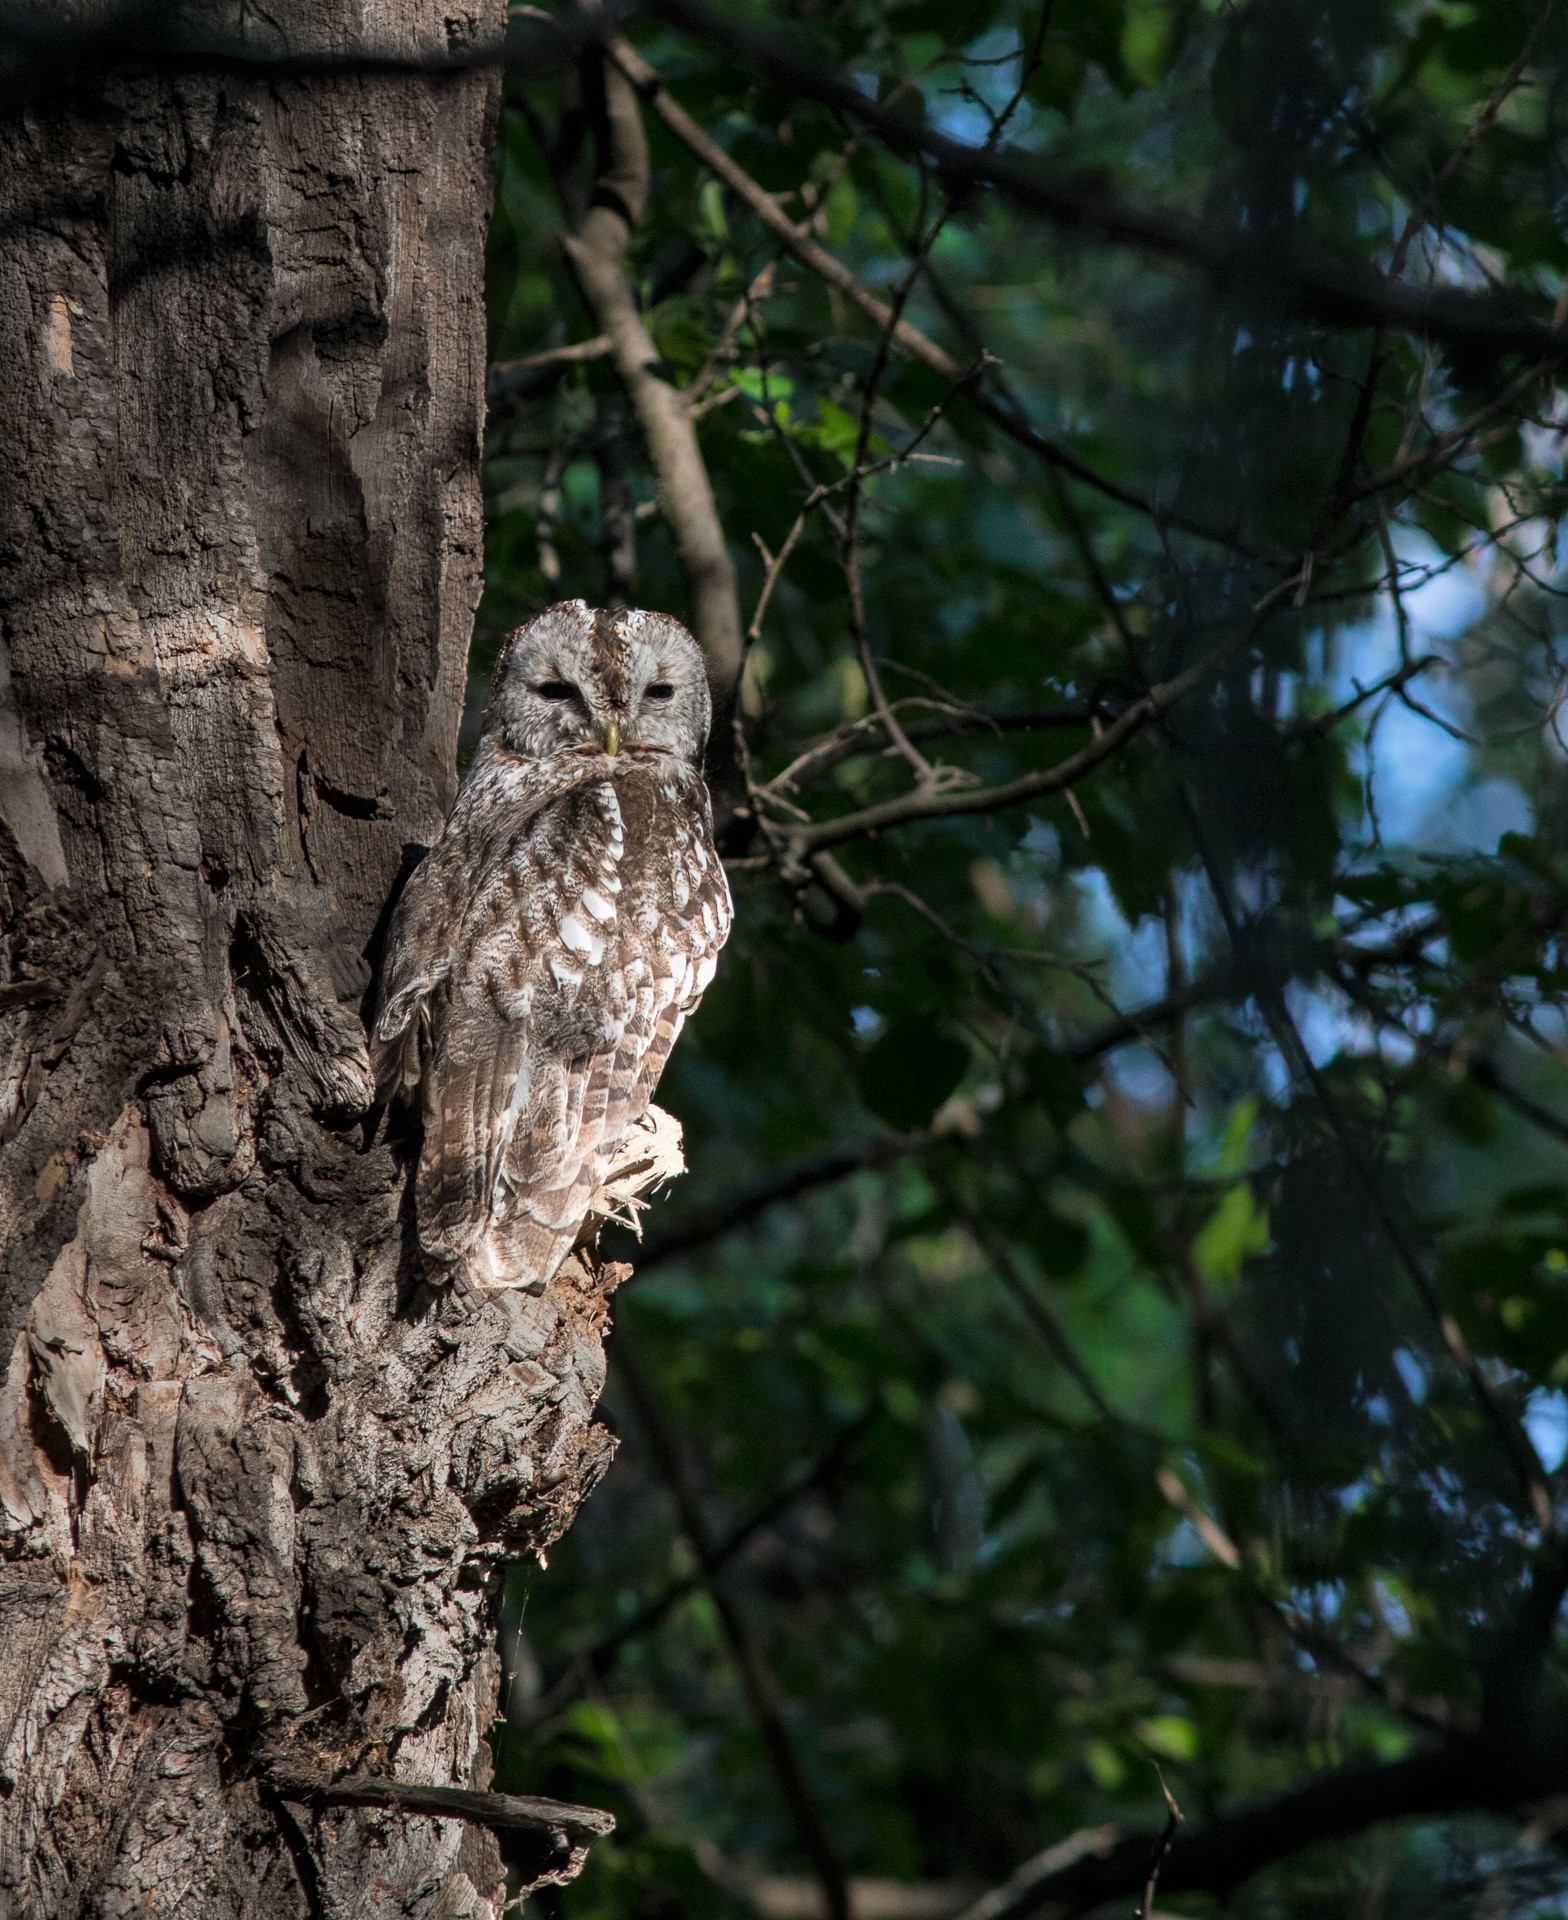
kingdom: Animalia
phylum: Chordata
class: Aves
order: Strigiformes
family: Strigidae
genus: Strix
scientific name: Strix aluco
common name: Tawny owl
